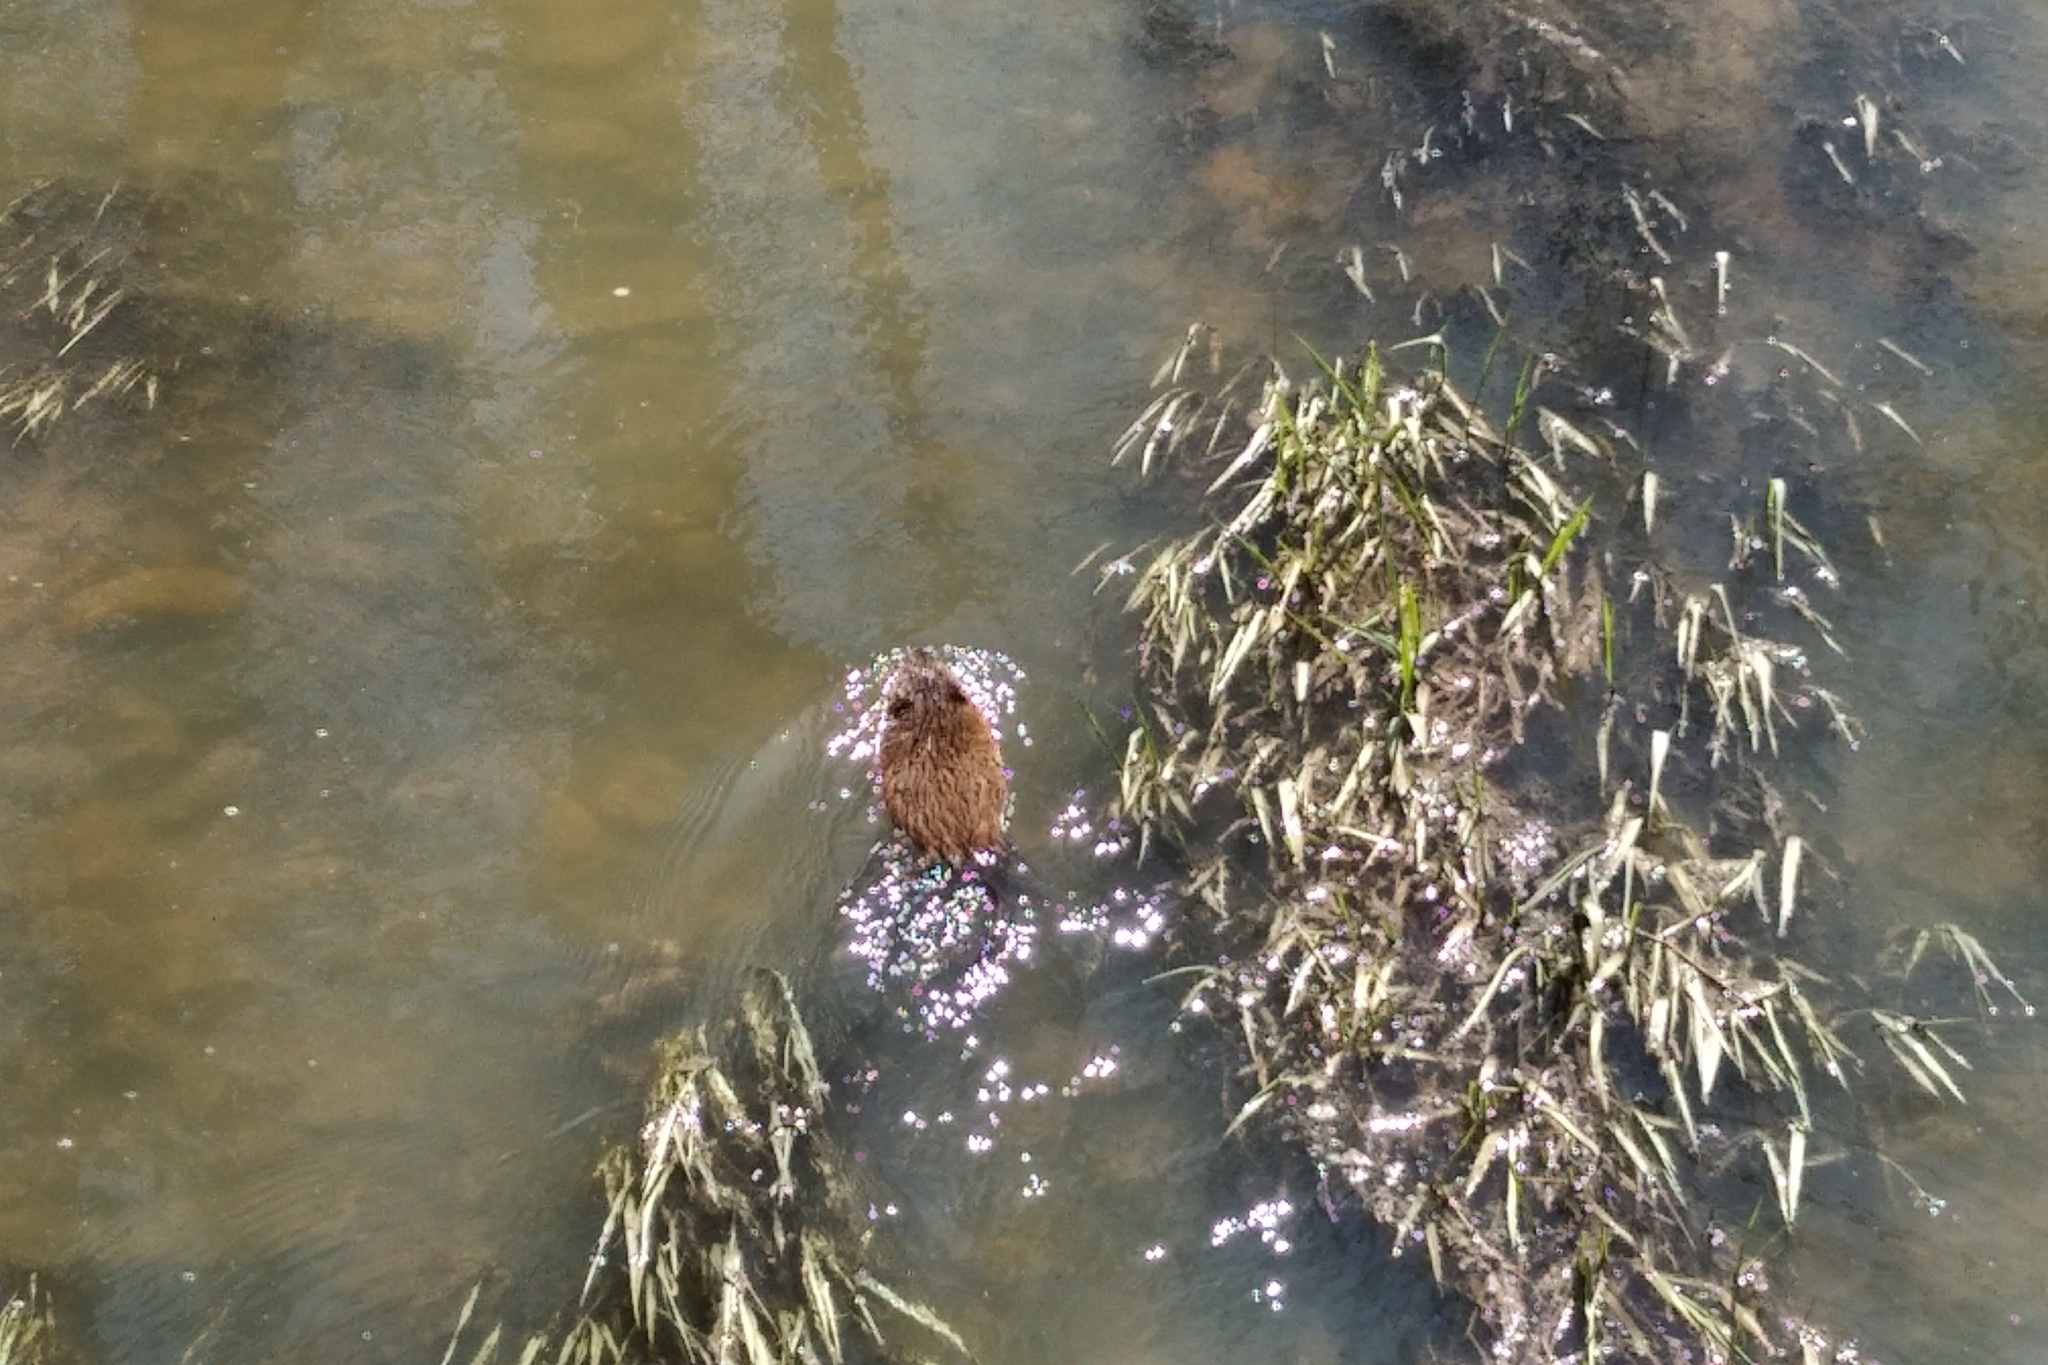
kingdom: Animalia
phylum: Chordata
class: Mammalia
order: Rodentia
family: Cricetidae
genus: Ondatra
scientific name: Ondatra zibethicus
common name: Muskrat
